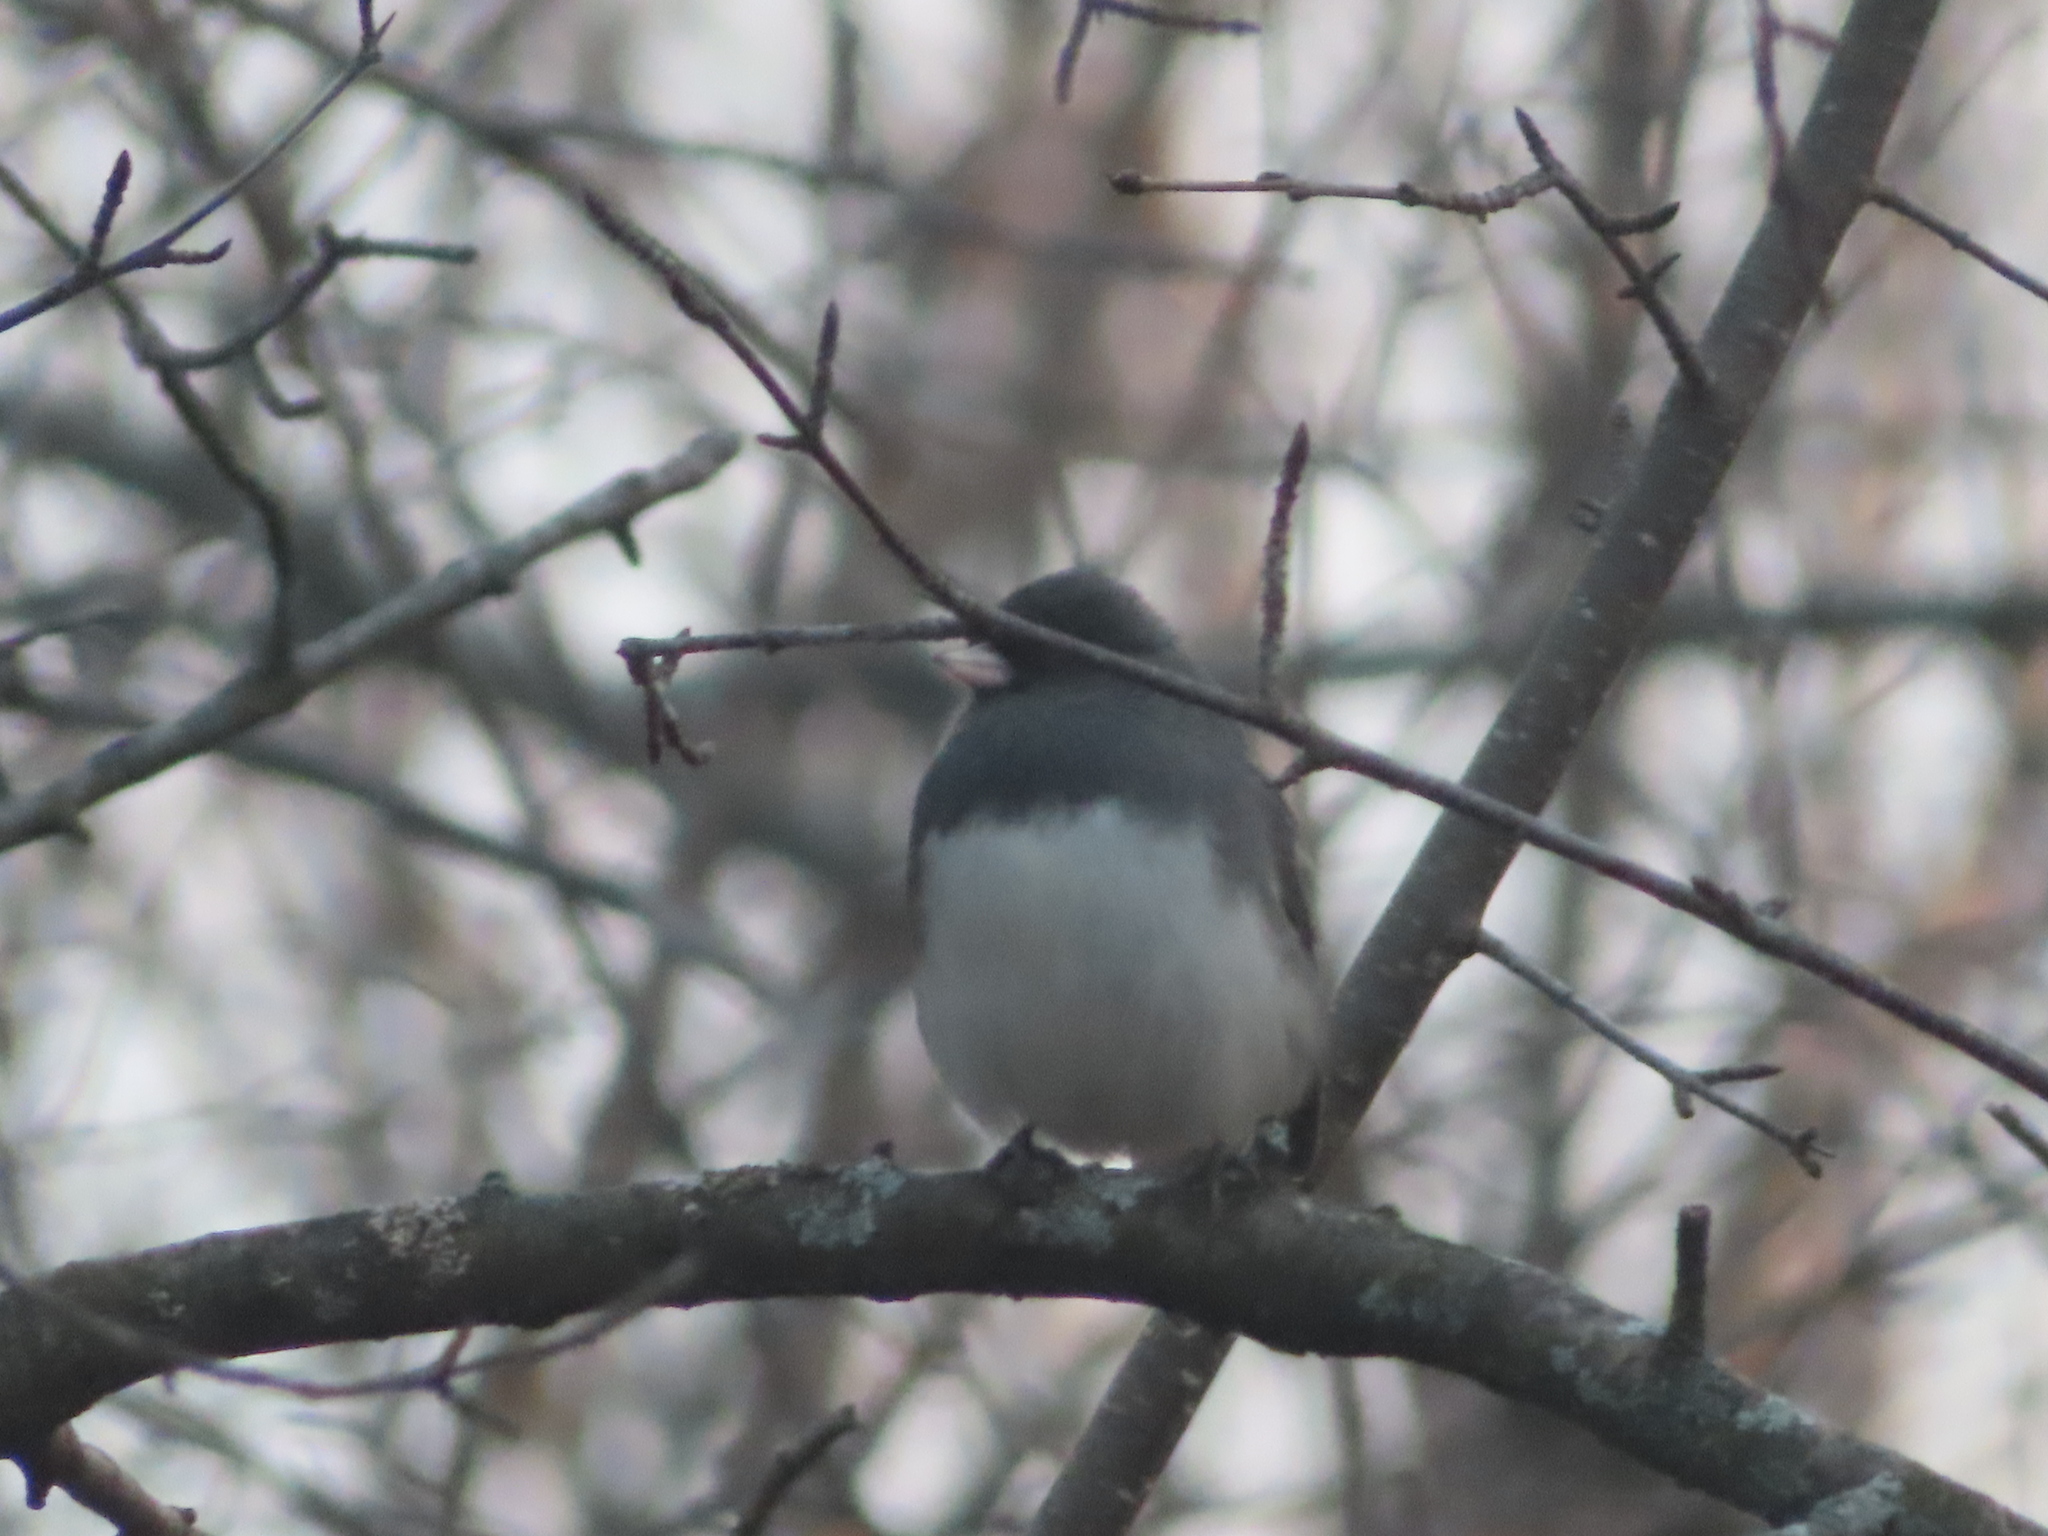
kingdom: Animalia
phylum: Chordata
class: Aves
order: Passeriformes
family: Passerellidae
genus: Junco
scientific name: Junco hyemalis
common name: Dark-eyed junco
